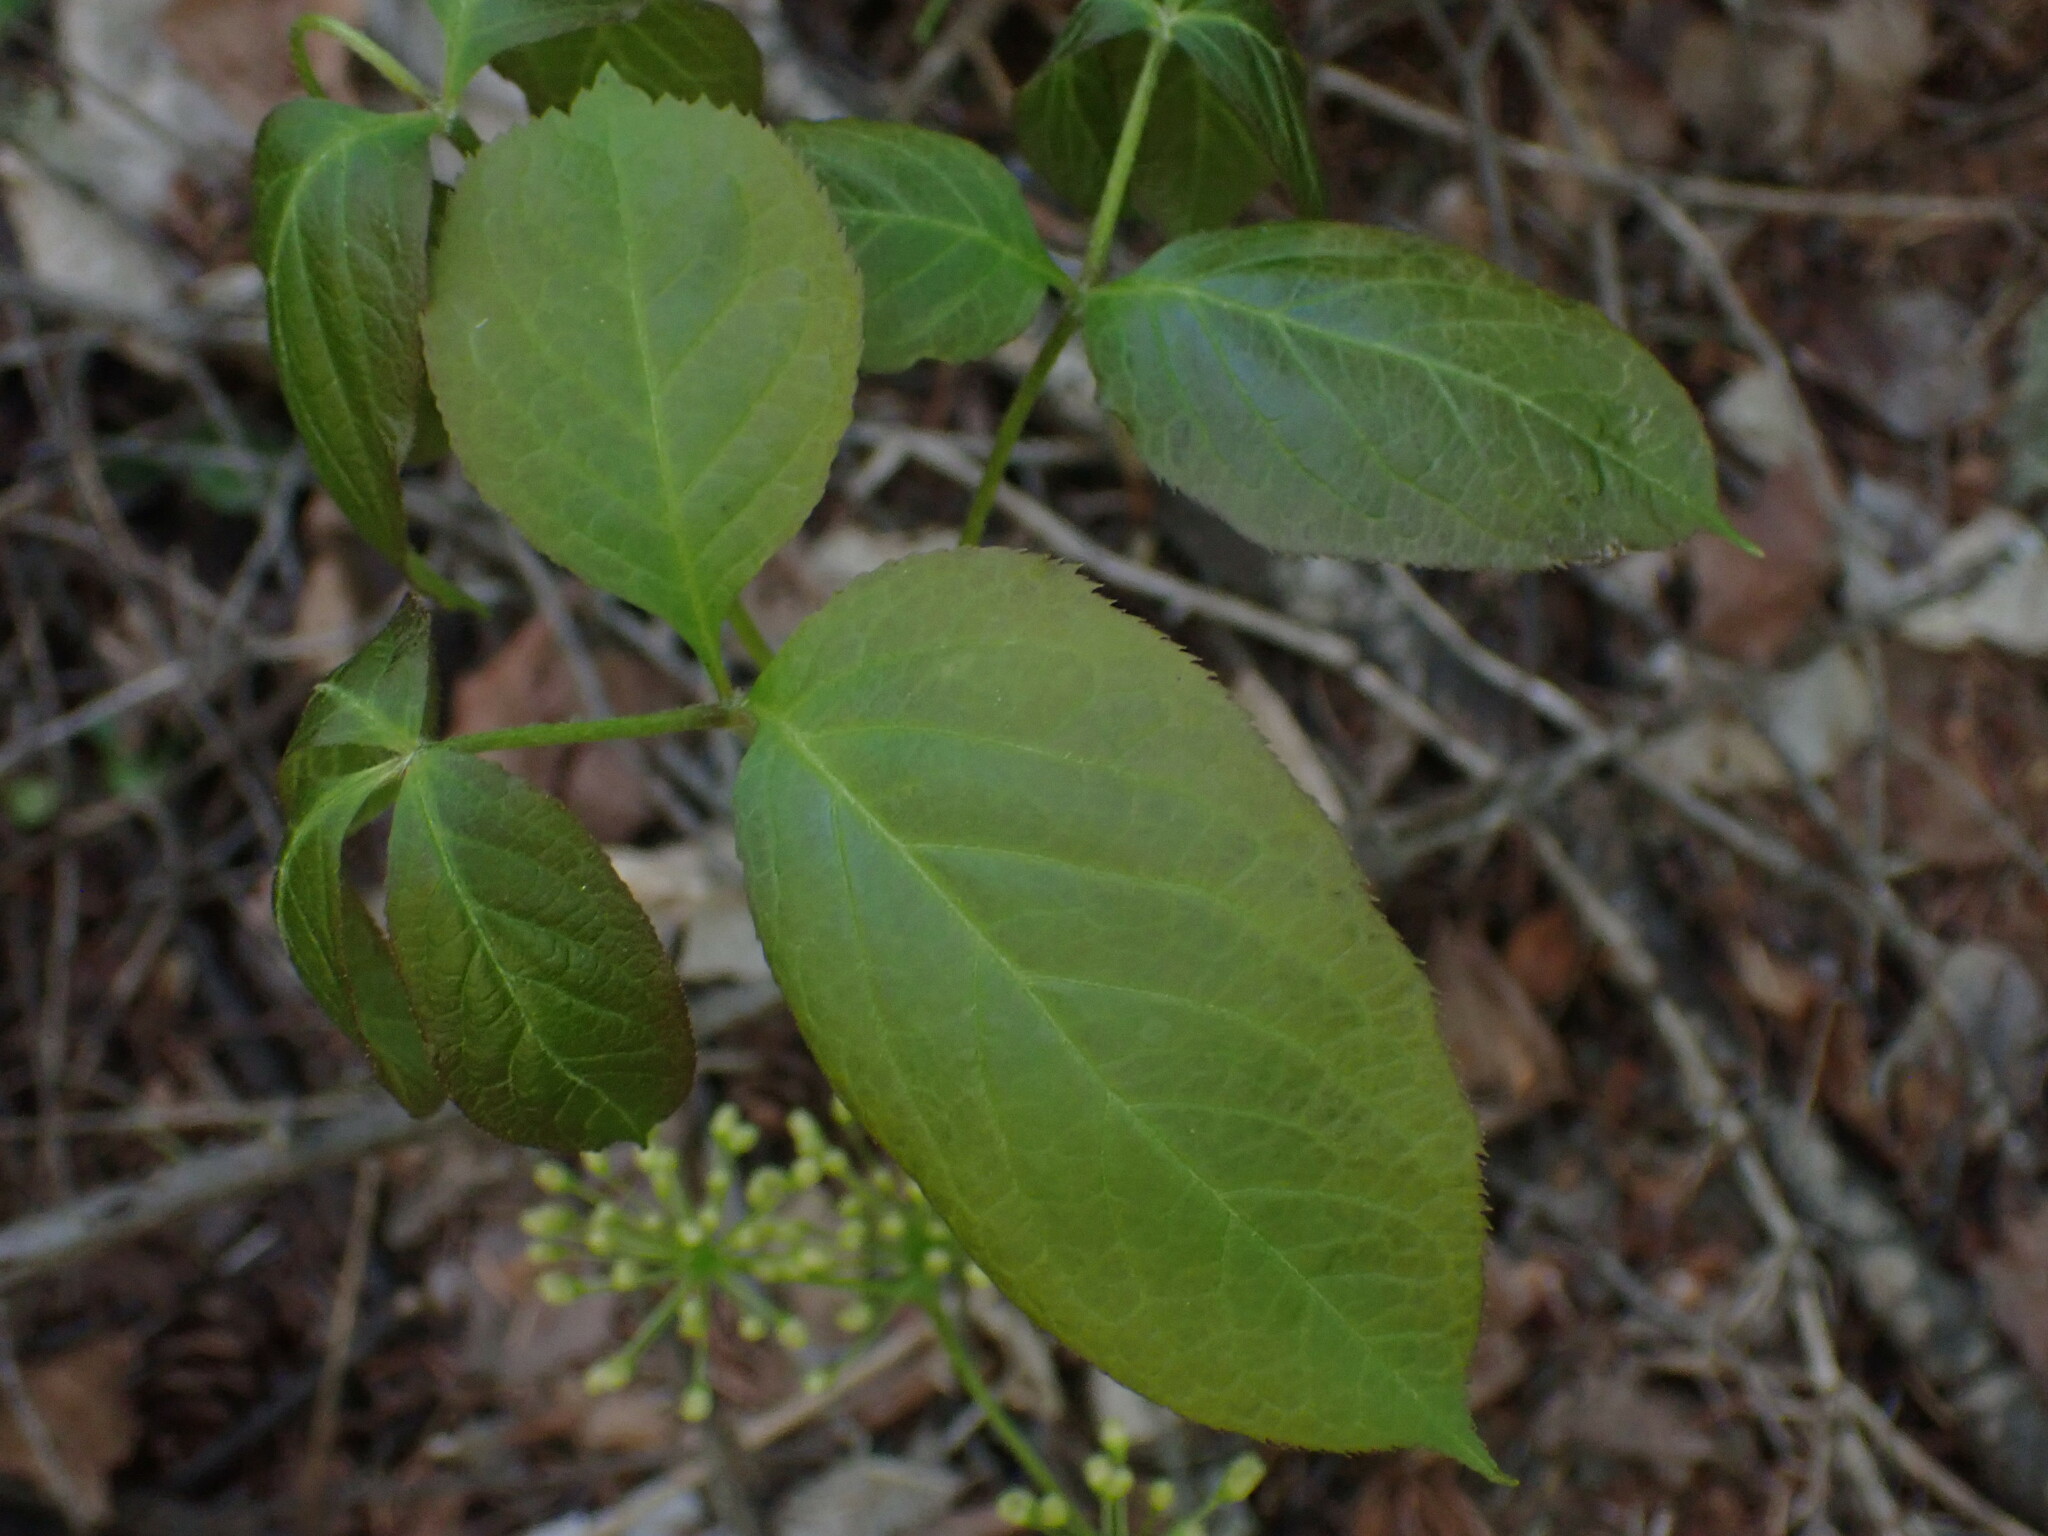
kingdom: Plantae
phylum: Tracheophyta
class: Magnoliopsida
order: Apiales
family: Araliaceae
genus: Aralia
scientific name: Aralia nudicaulis
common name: Wild sarsaparilla
